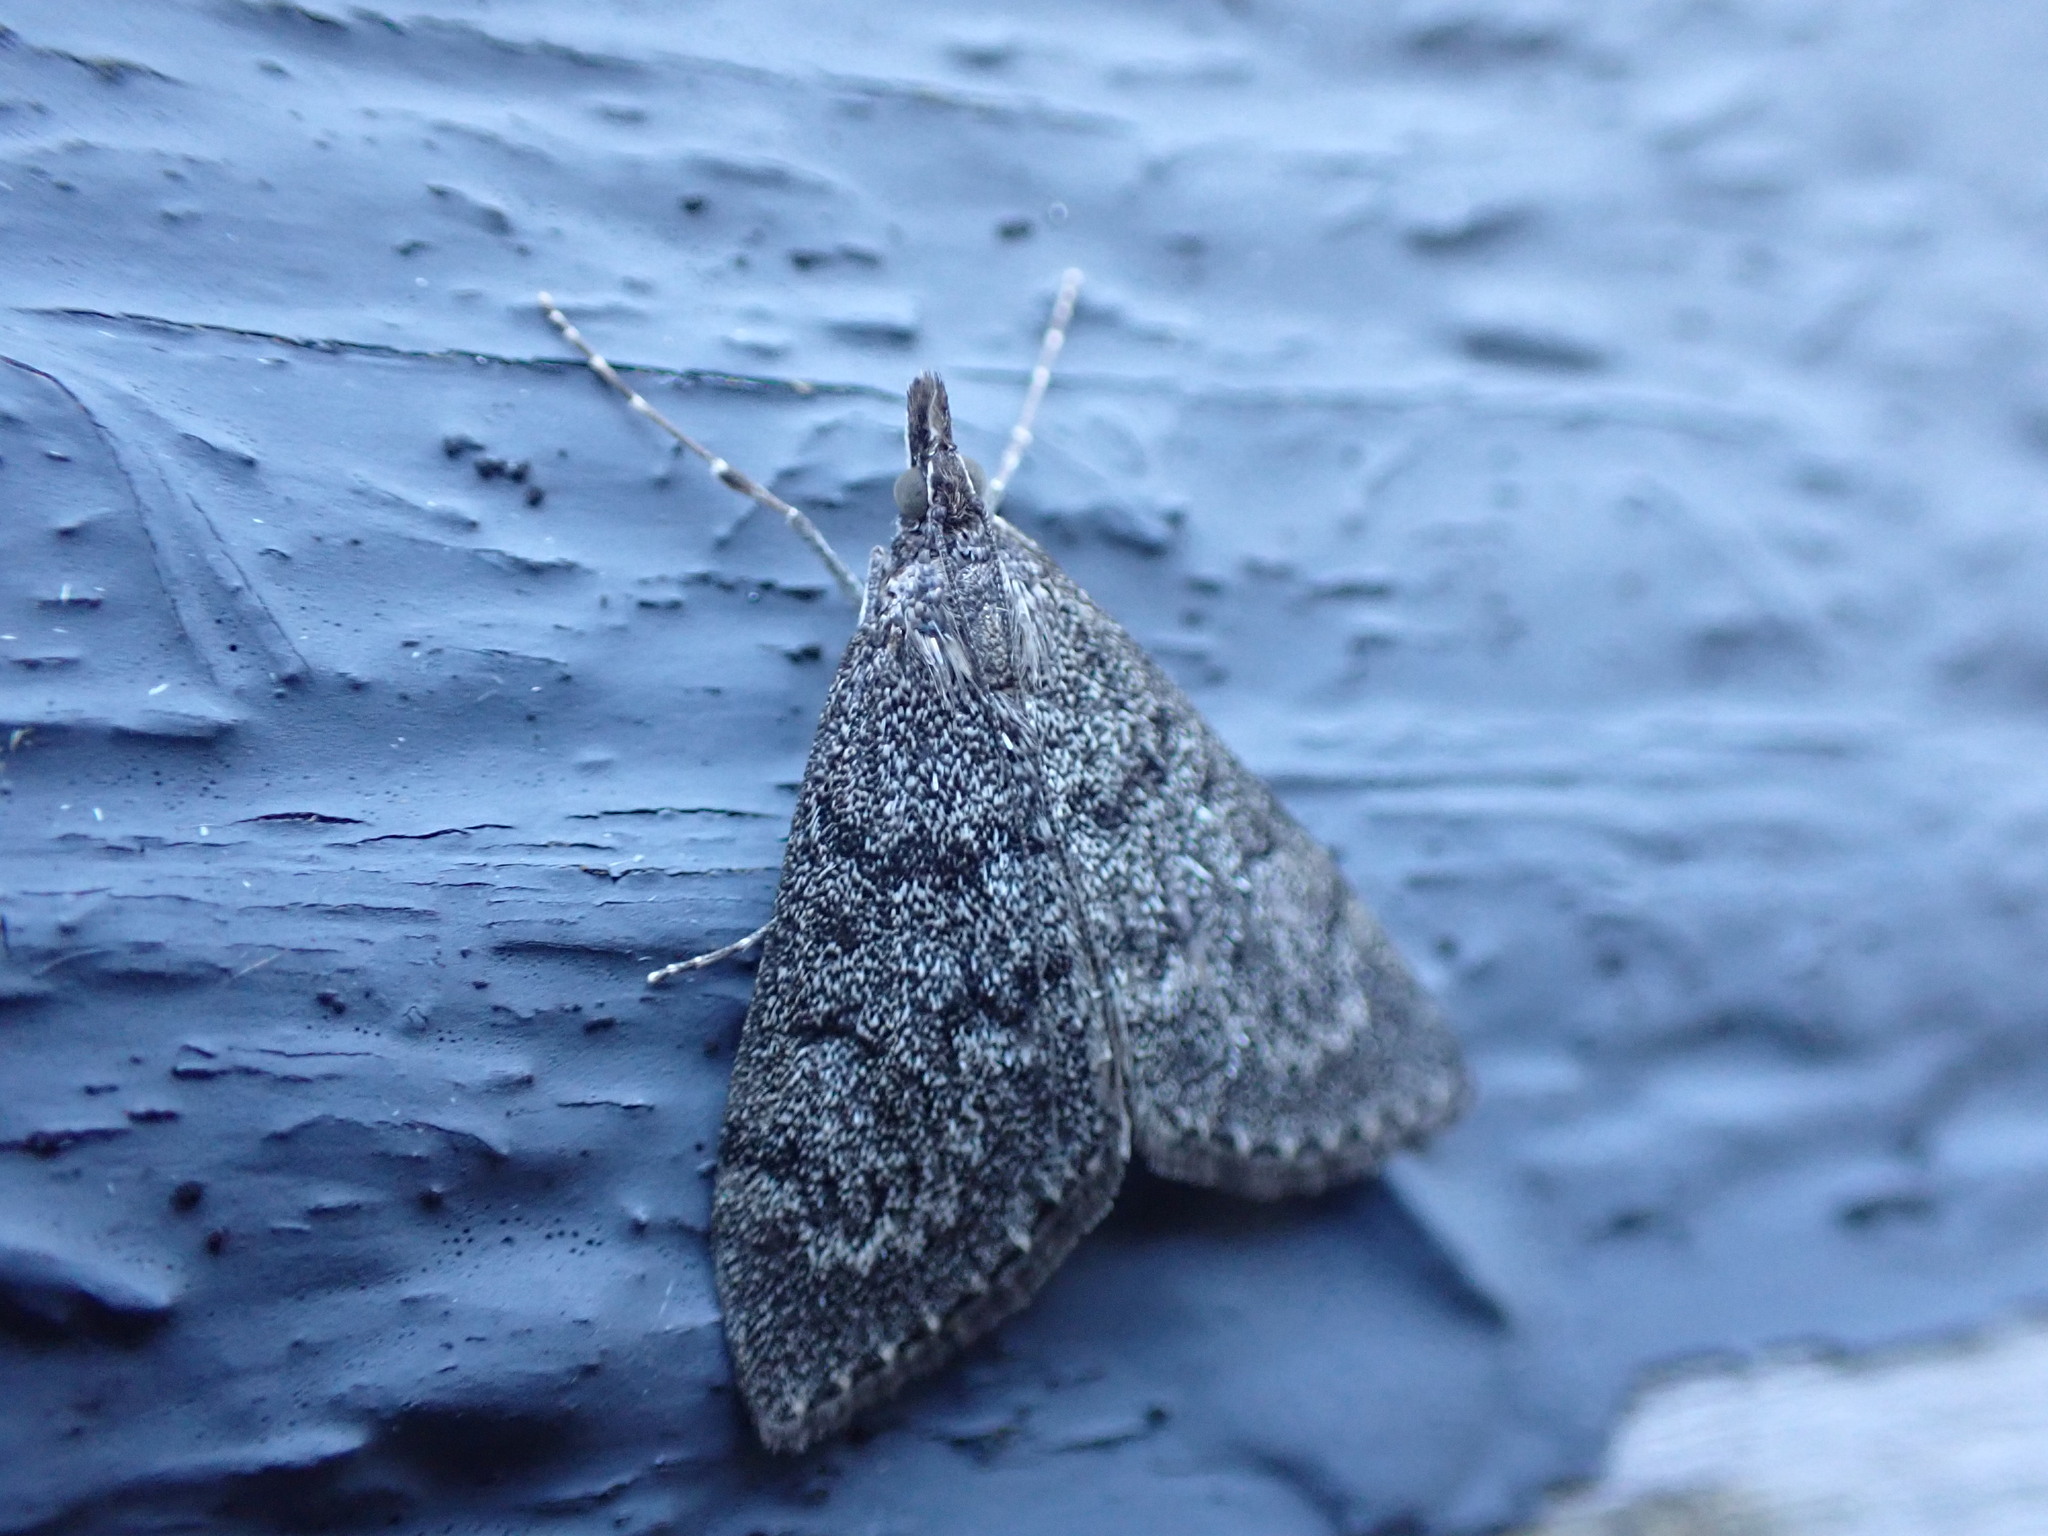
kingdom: Animalia
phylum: Arthropoda
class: Insecta
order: Lepidoptera
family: Crambidae
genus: Saucrobotys
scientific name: Saucrobotys fumoferalis
